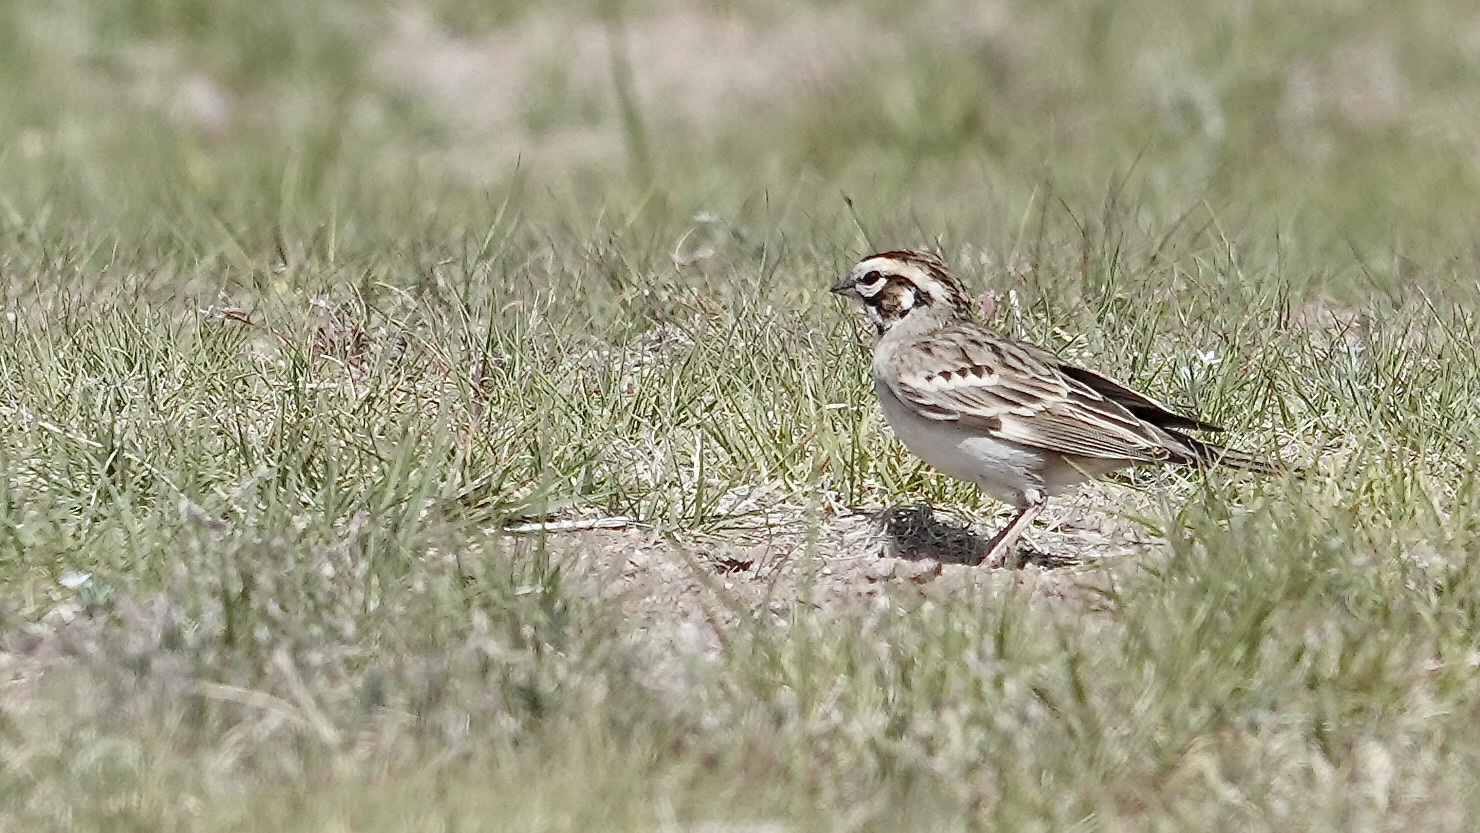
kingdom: Animalia
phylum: Chordata
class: Aves
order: Passeriformes
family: Passerellidae
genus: Chondestes
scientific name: Chondestes grammacus
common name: Lark sparrow
